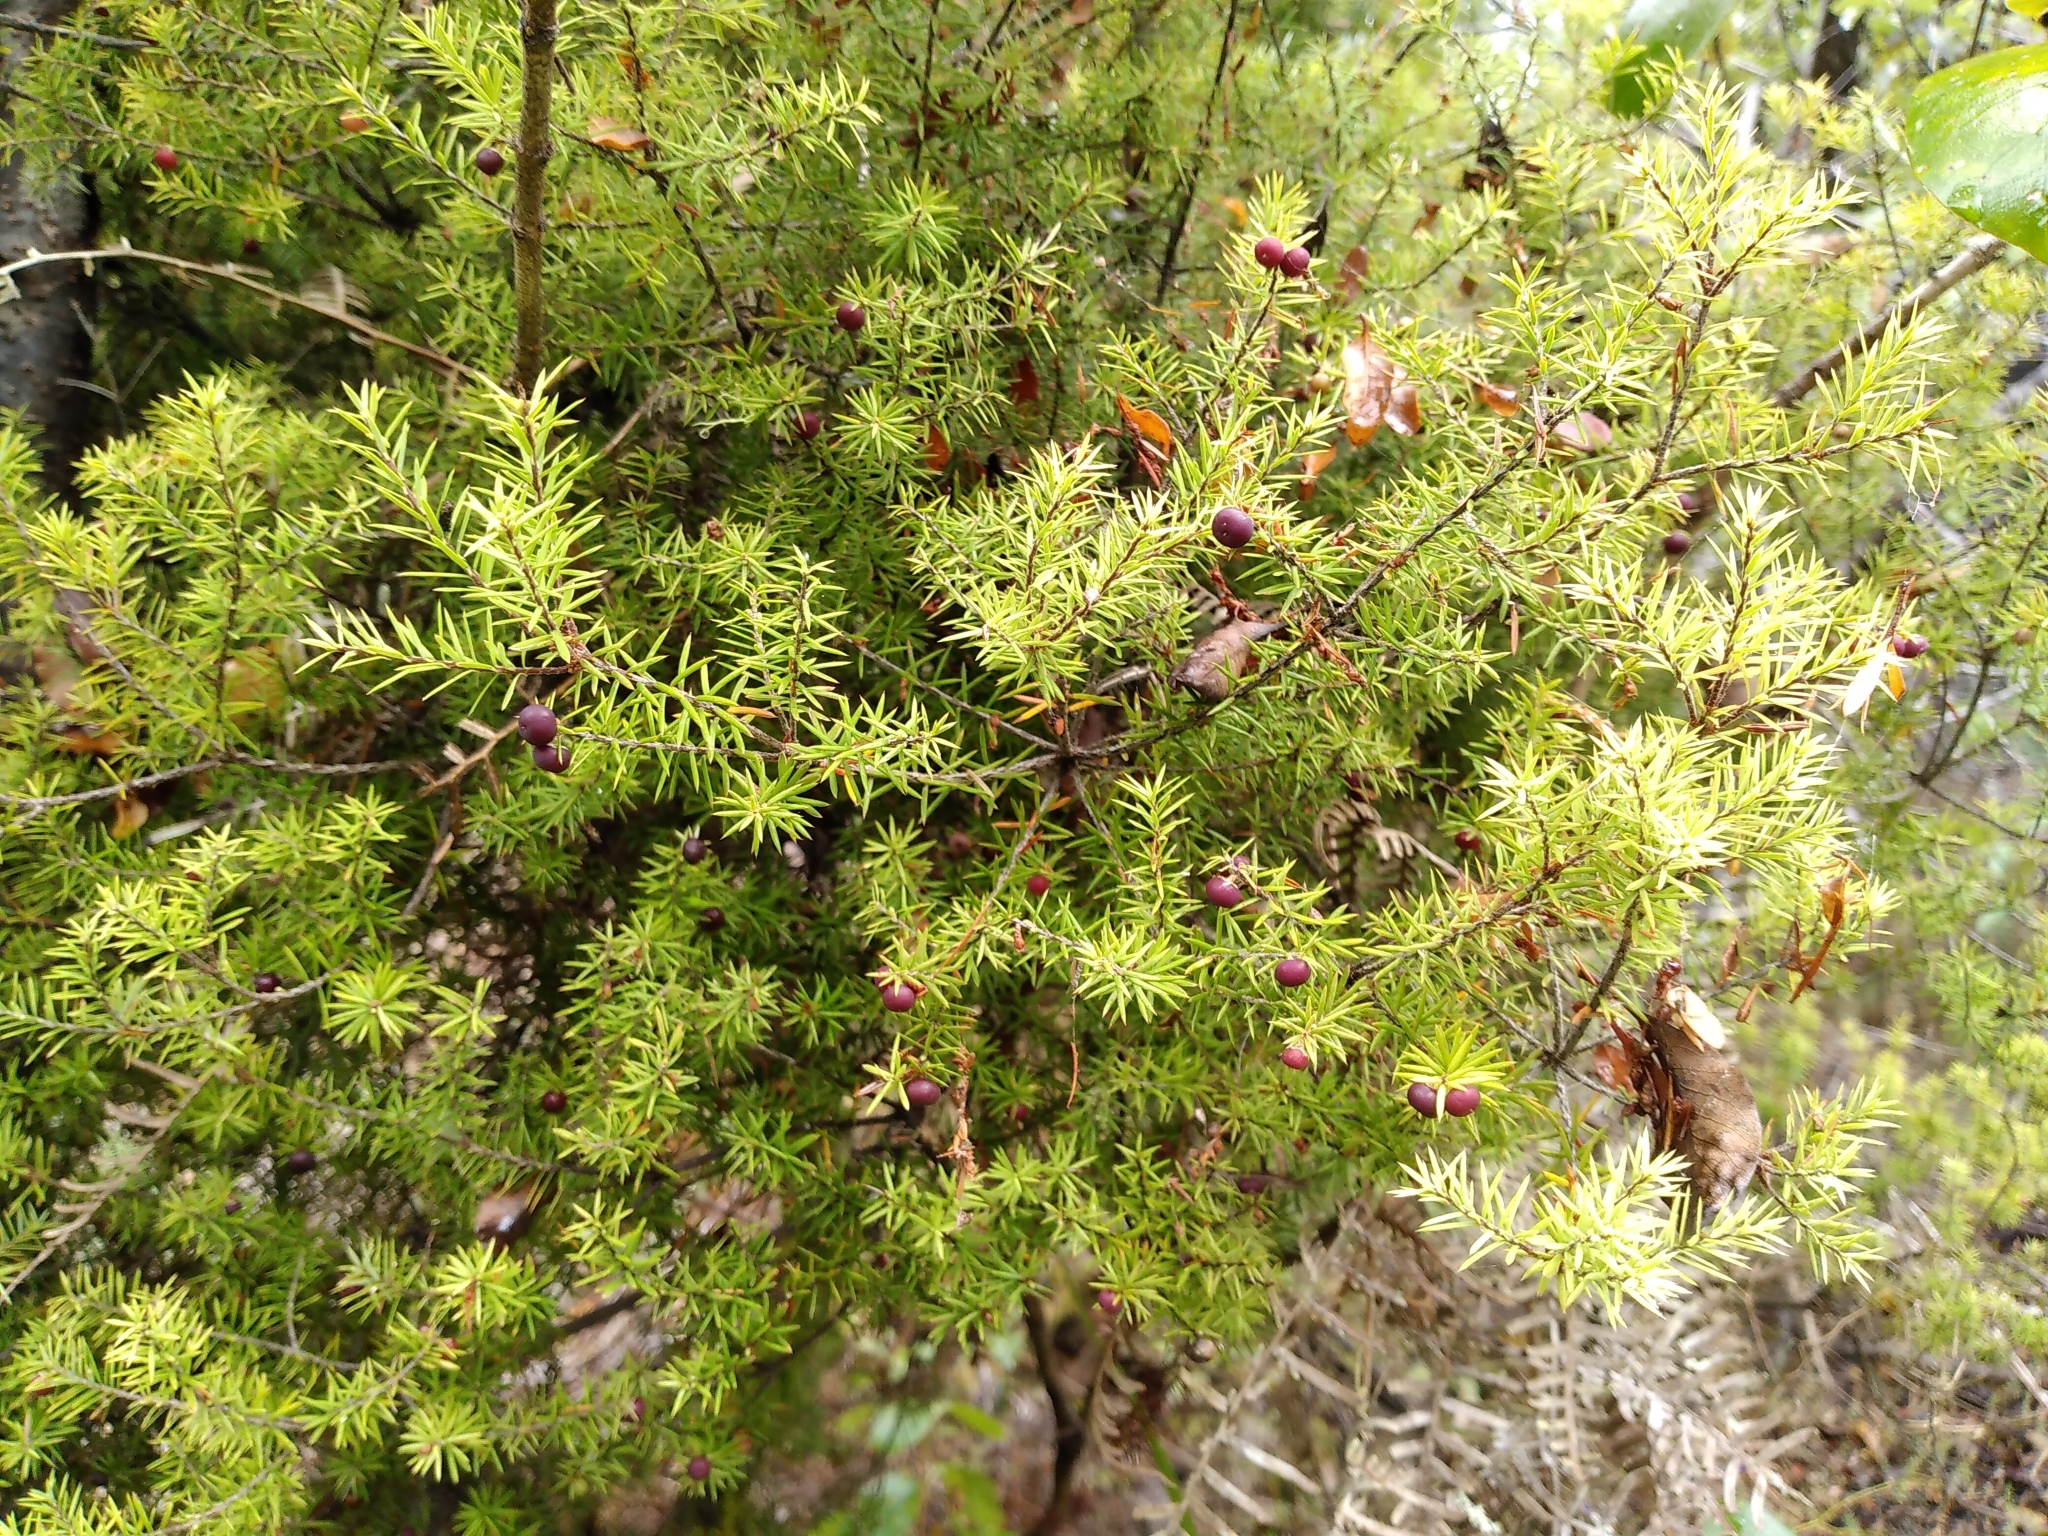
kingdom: Plantae
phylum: Tracheophyta
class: Magnoliopsida
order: Ericales
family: Ericaceae
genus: Leptecophylla
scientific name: Leptecophylla juniperina
